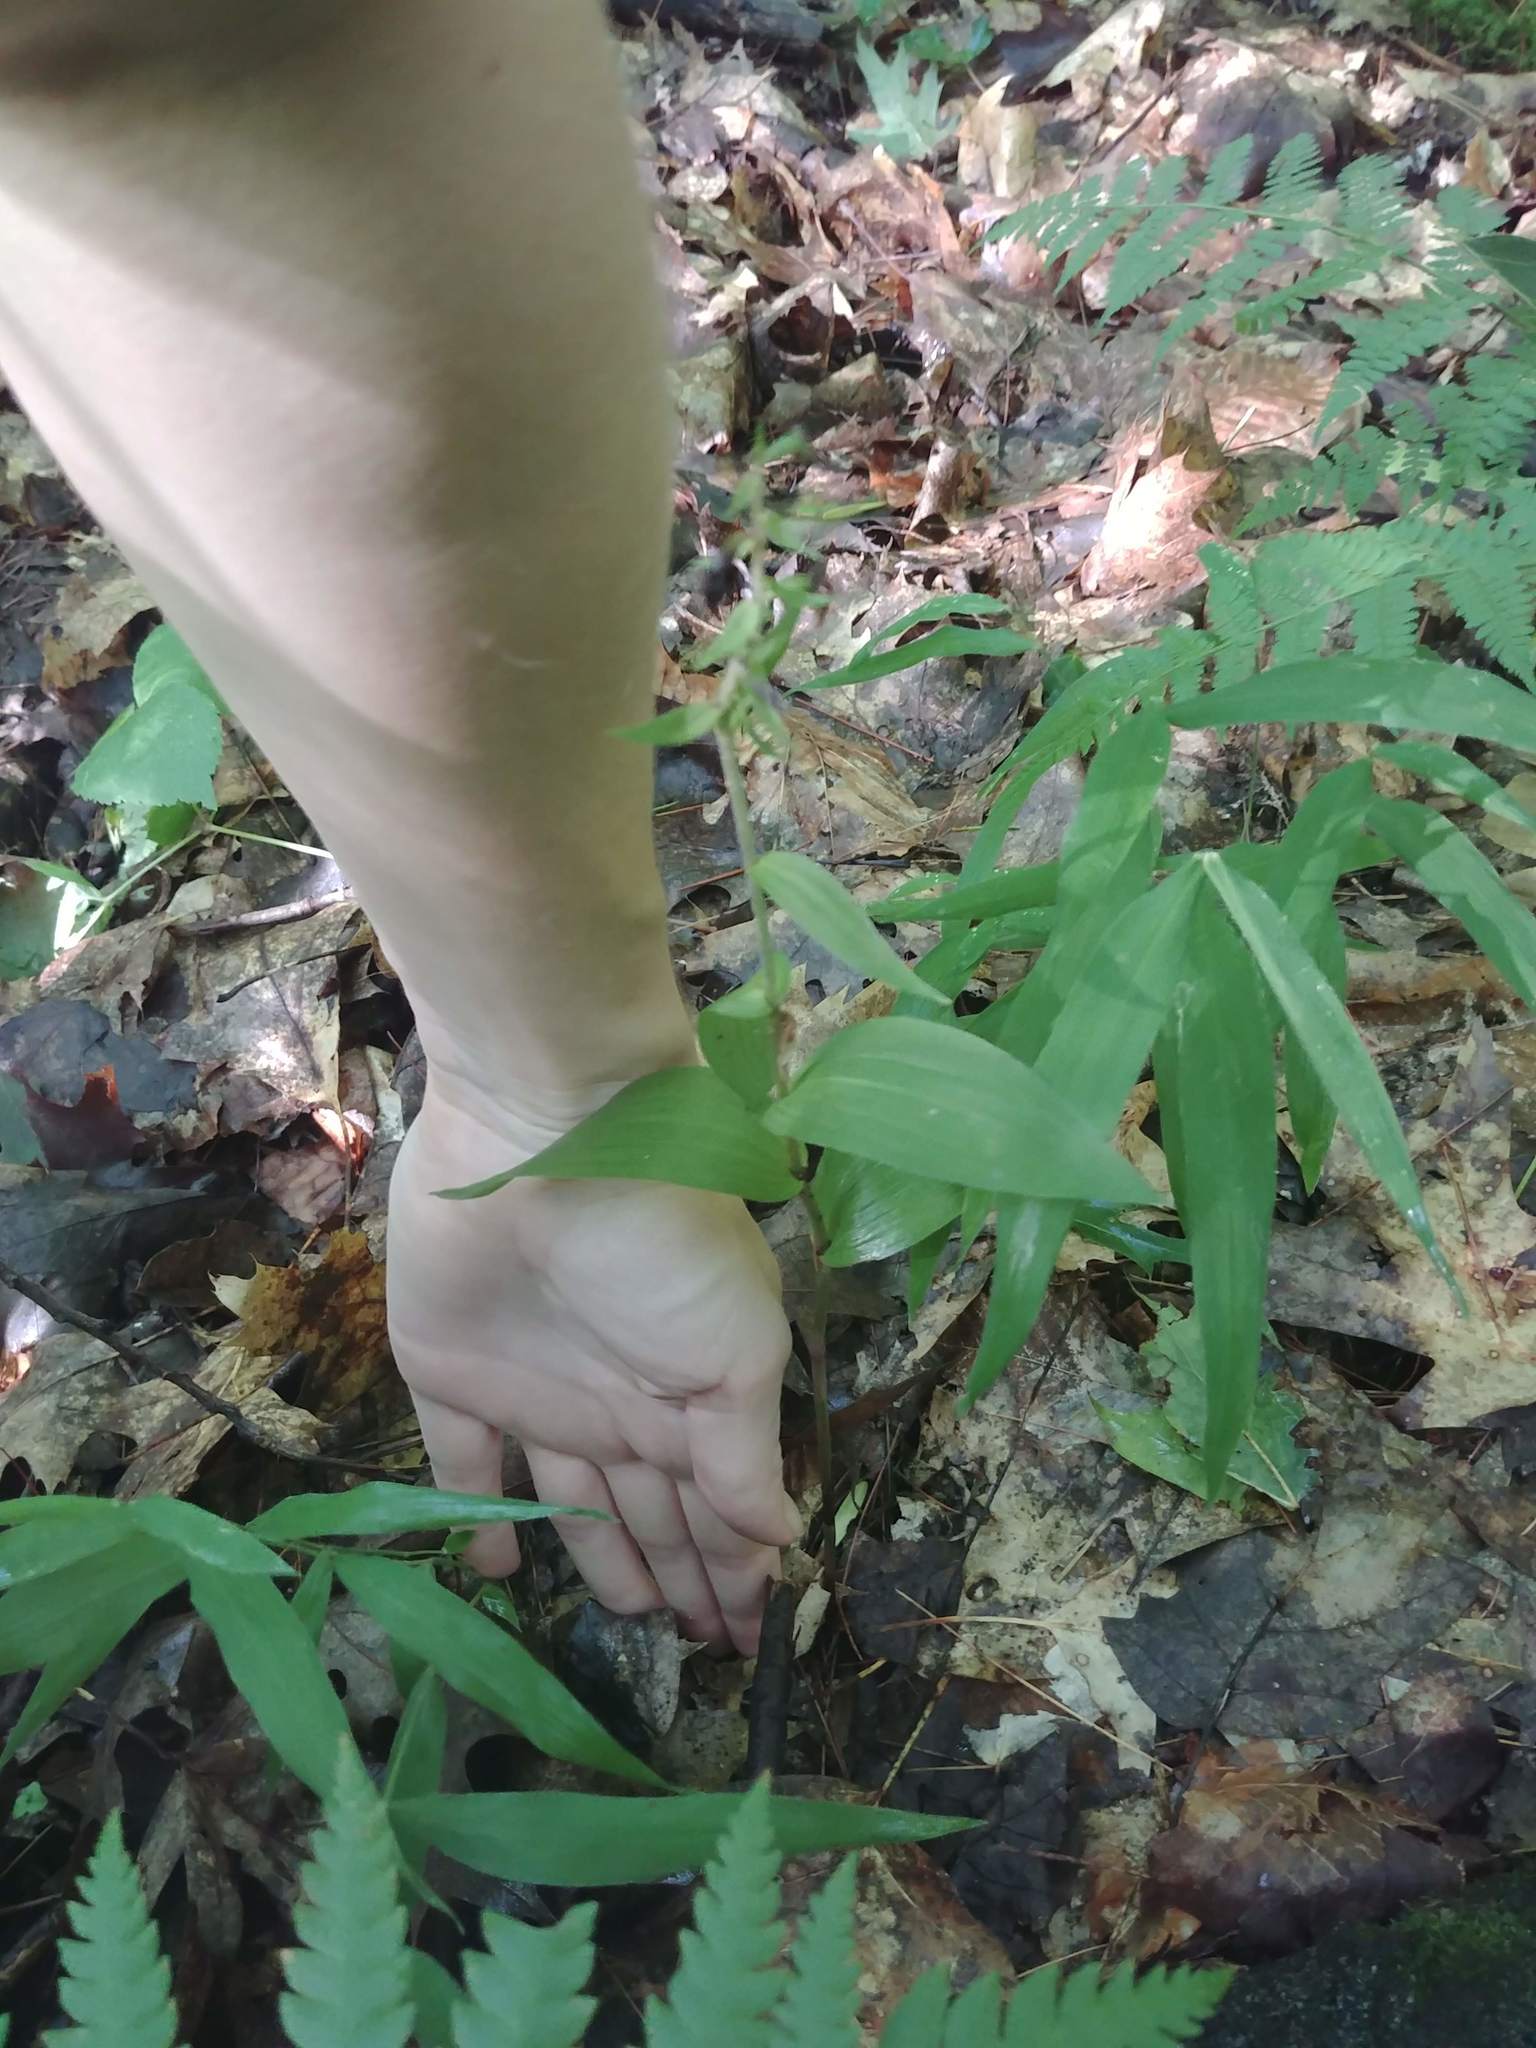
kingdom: Plantae
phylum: Tracheophyta
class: Liliopsida
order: Asparagales
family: Orchidaceae
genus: Epipactis
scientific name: Epipactis helleborine
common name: Broad-leaved helleborine
